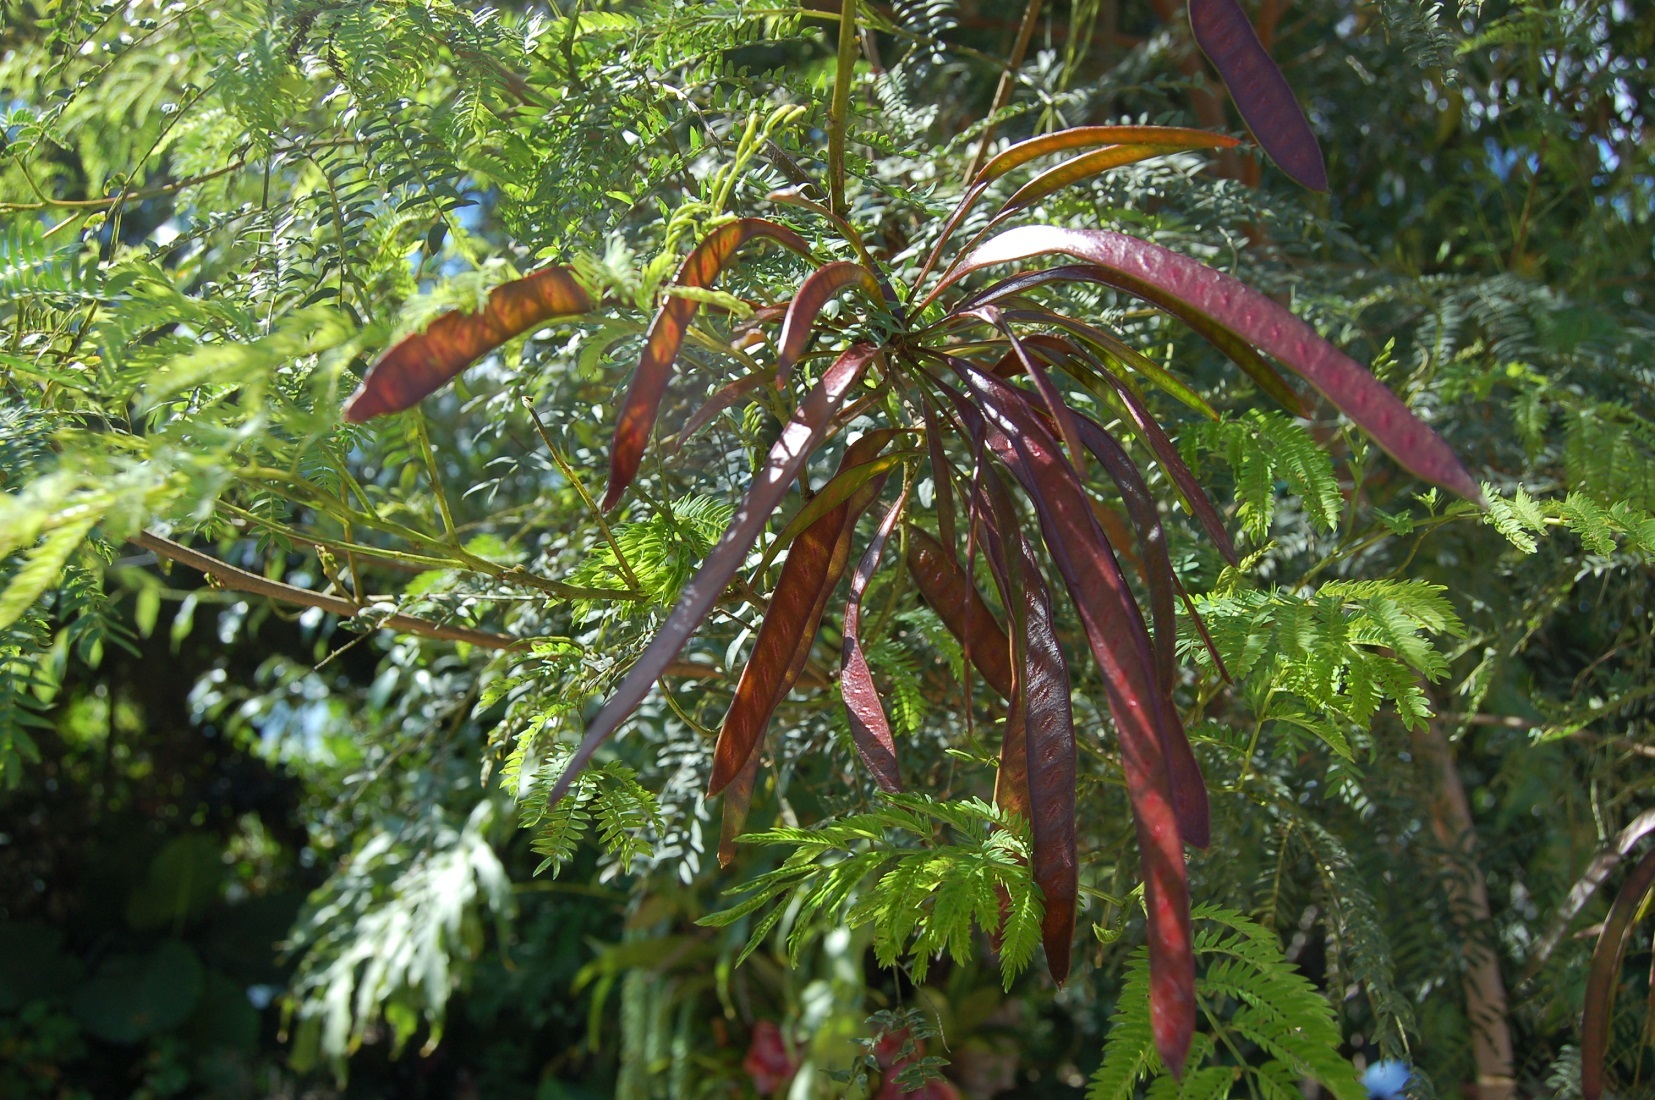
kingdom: Plantae
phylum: Tracheophyta
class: Magnoliopsida
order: Fabales
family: Fabaceae
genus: Leucaena
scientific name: Leucaena leucocephala
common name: White leadtree
